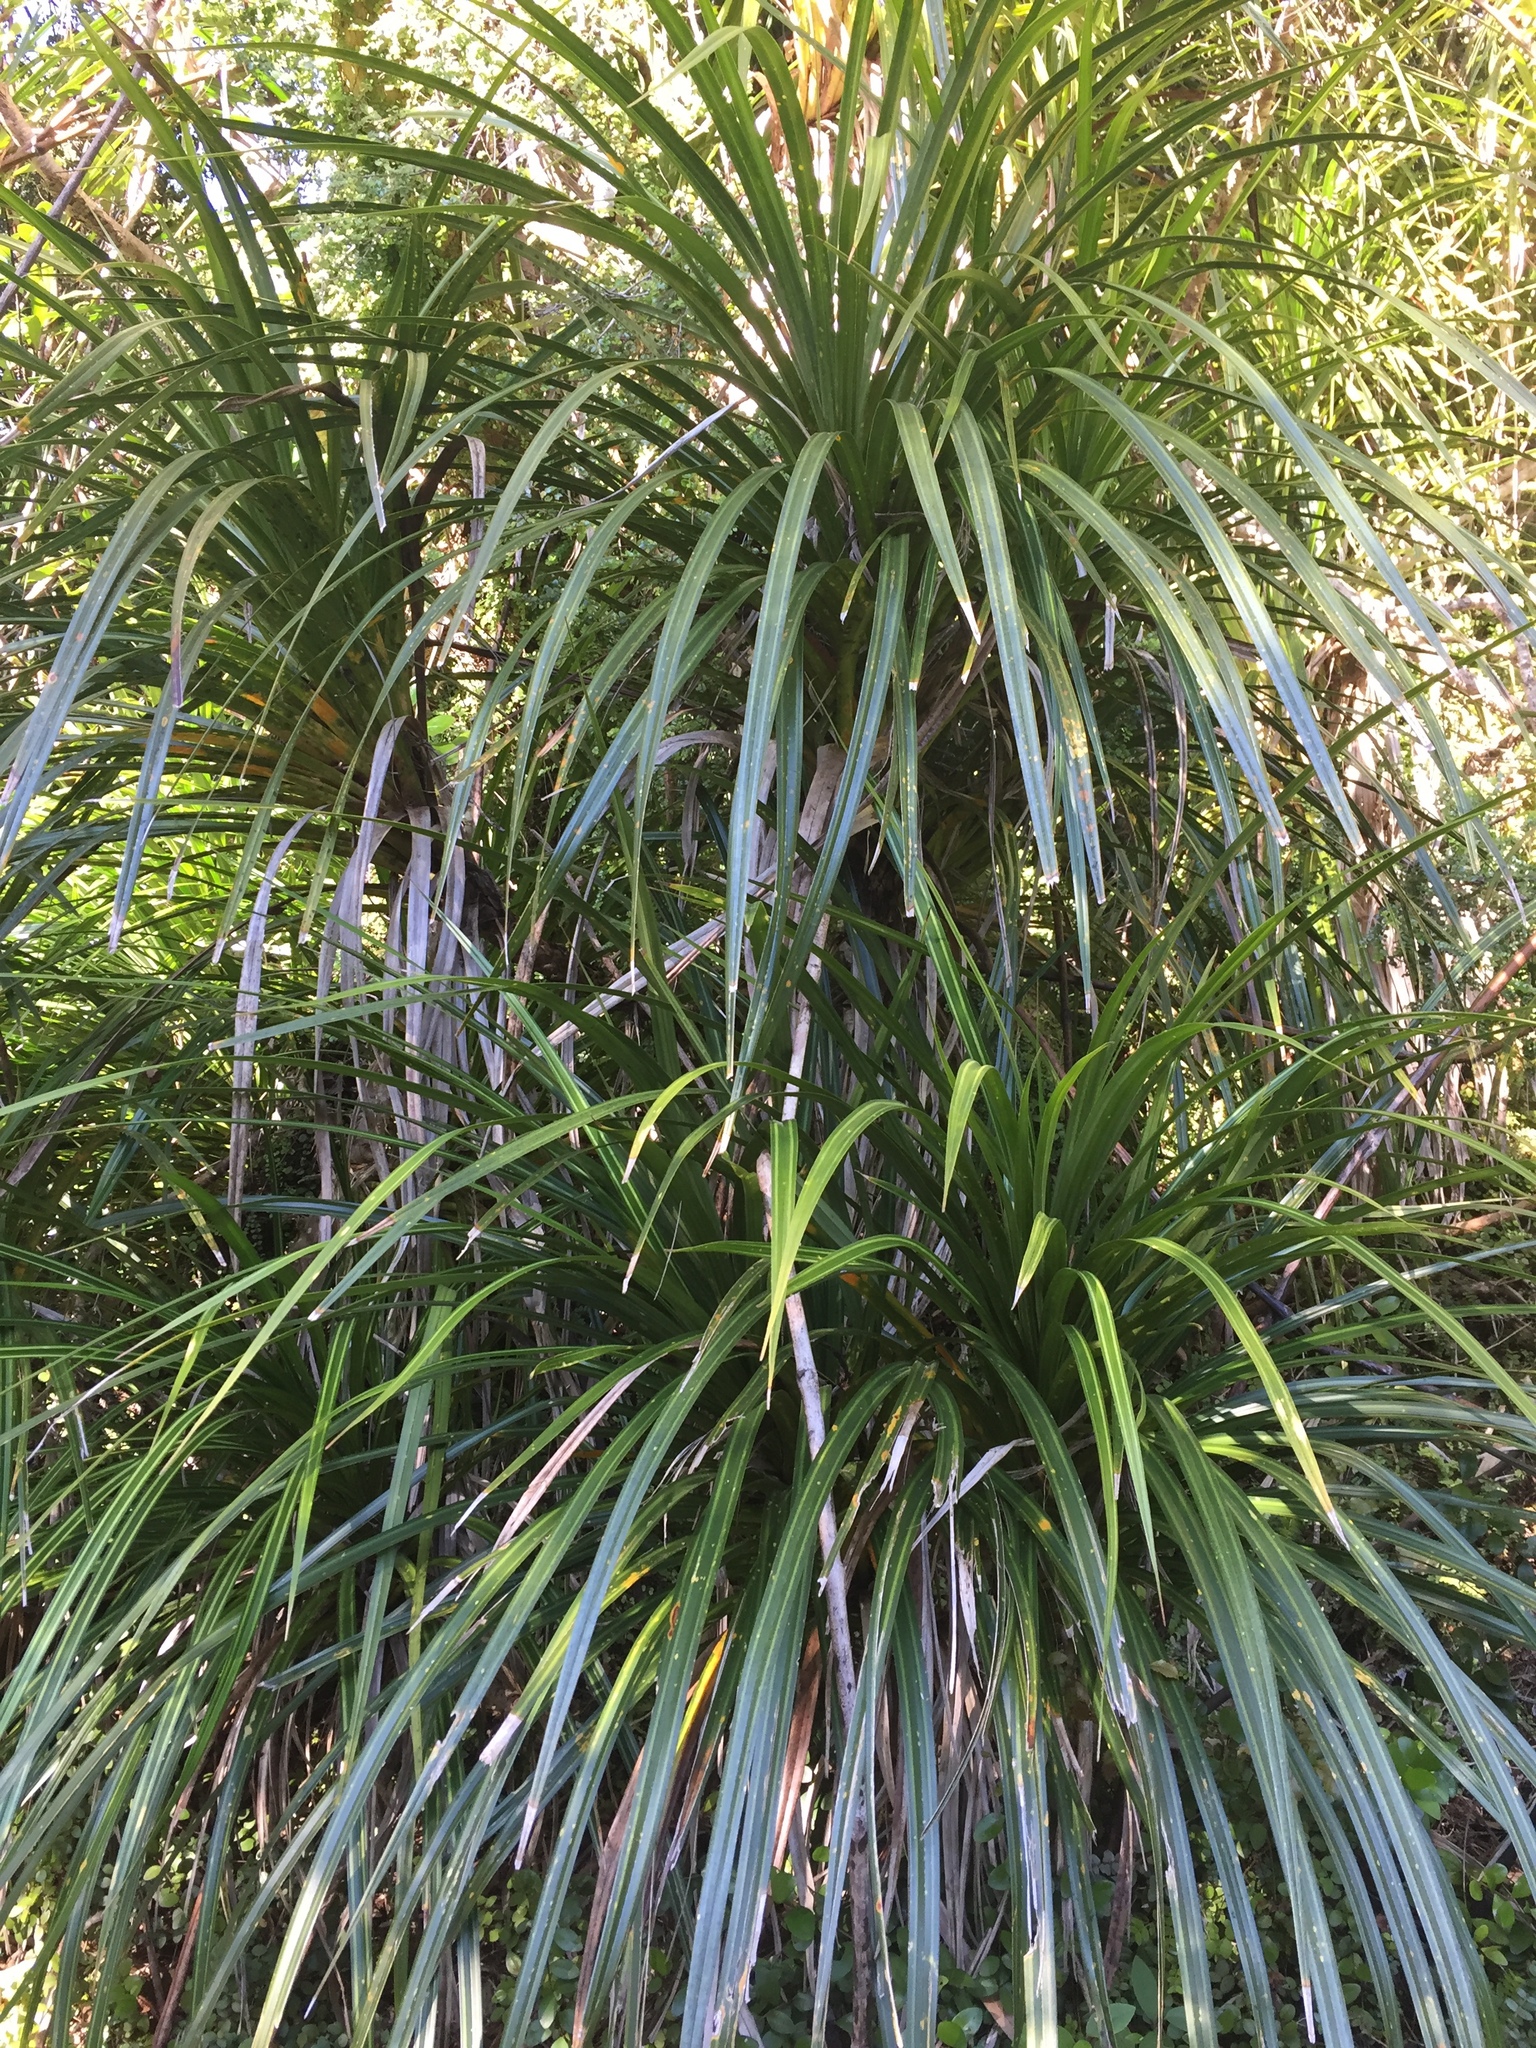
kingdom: Plantae
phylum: Tracheophyta
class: Liliopsida
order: Pandanales
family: Pandanaceae
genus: Freycinetia
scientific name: Freycinetia banksii
